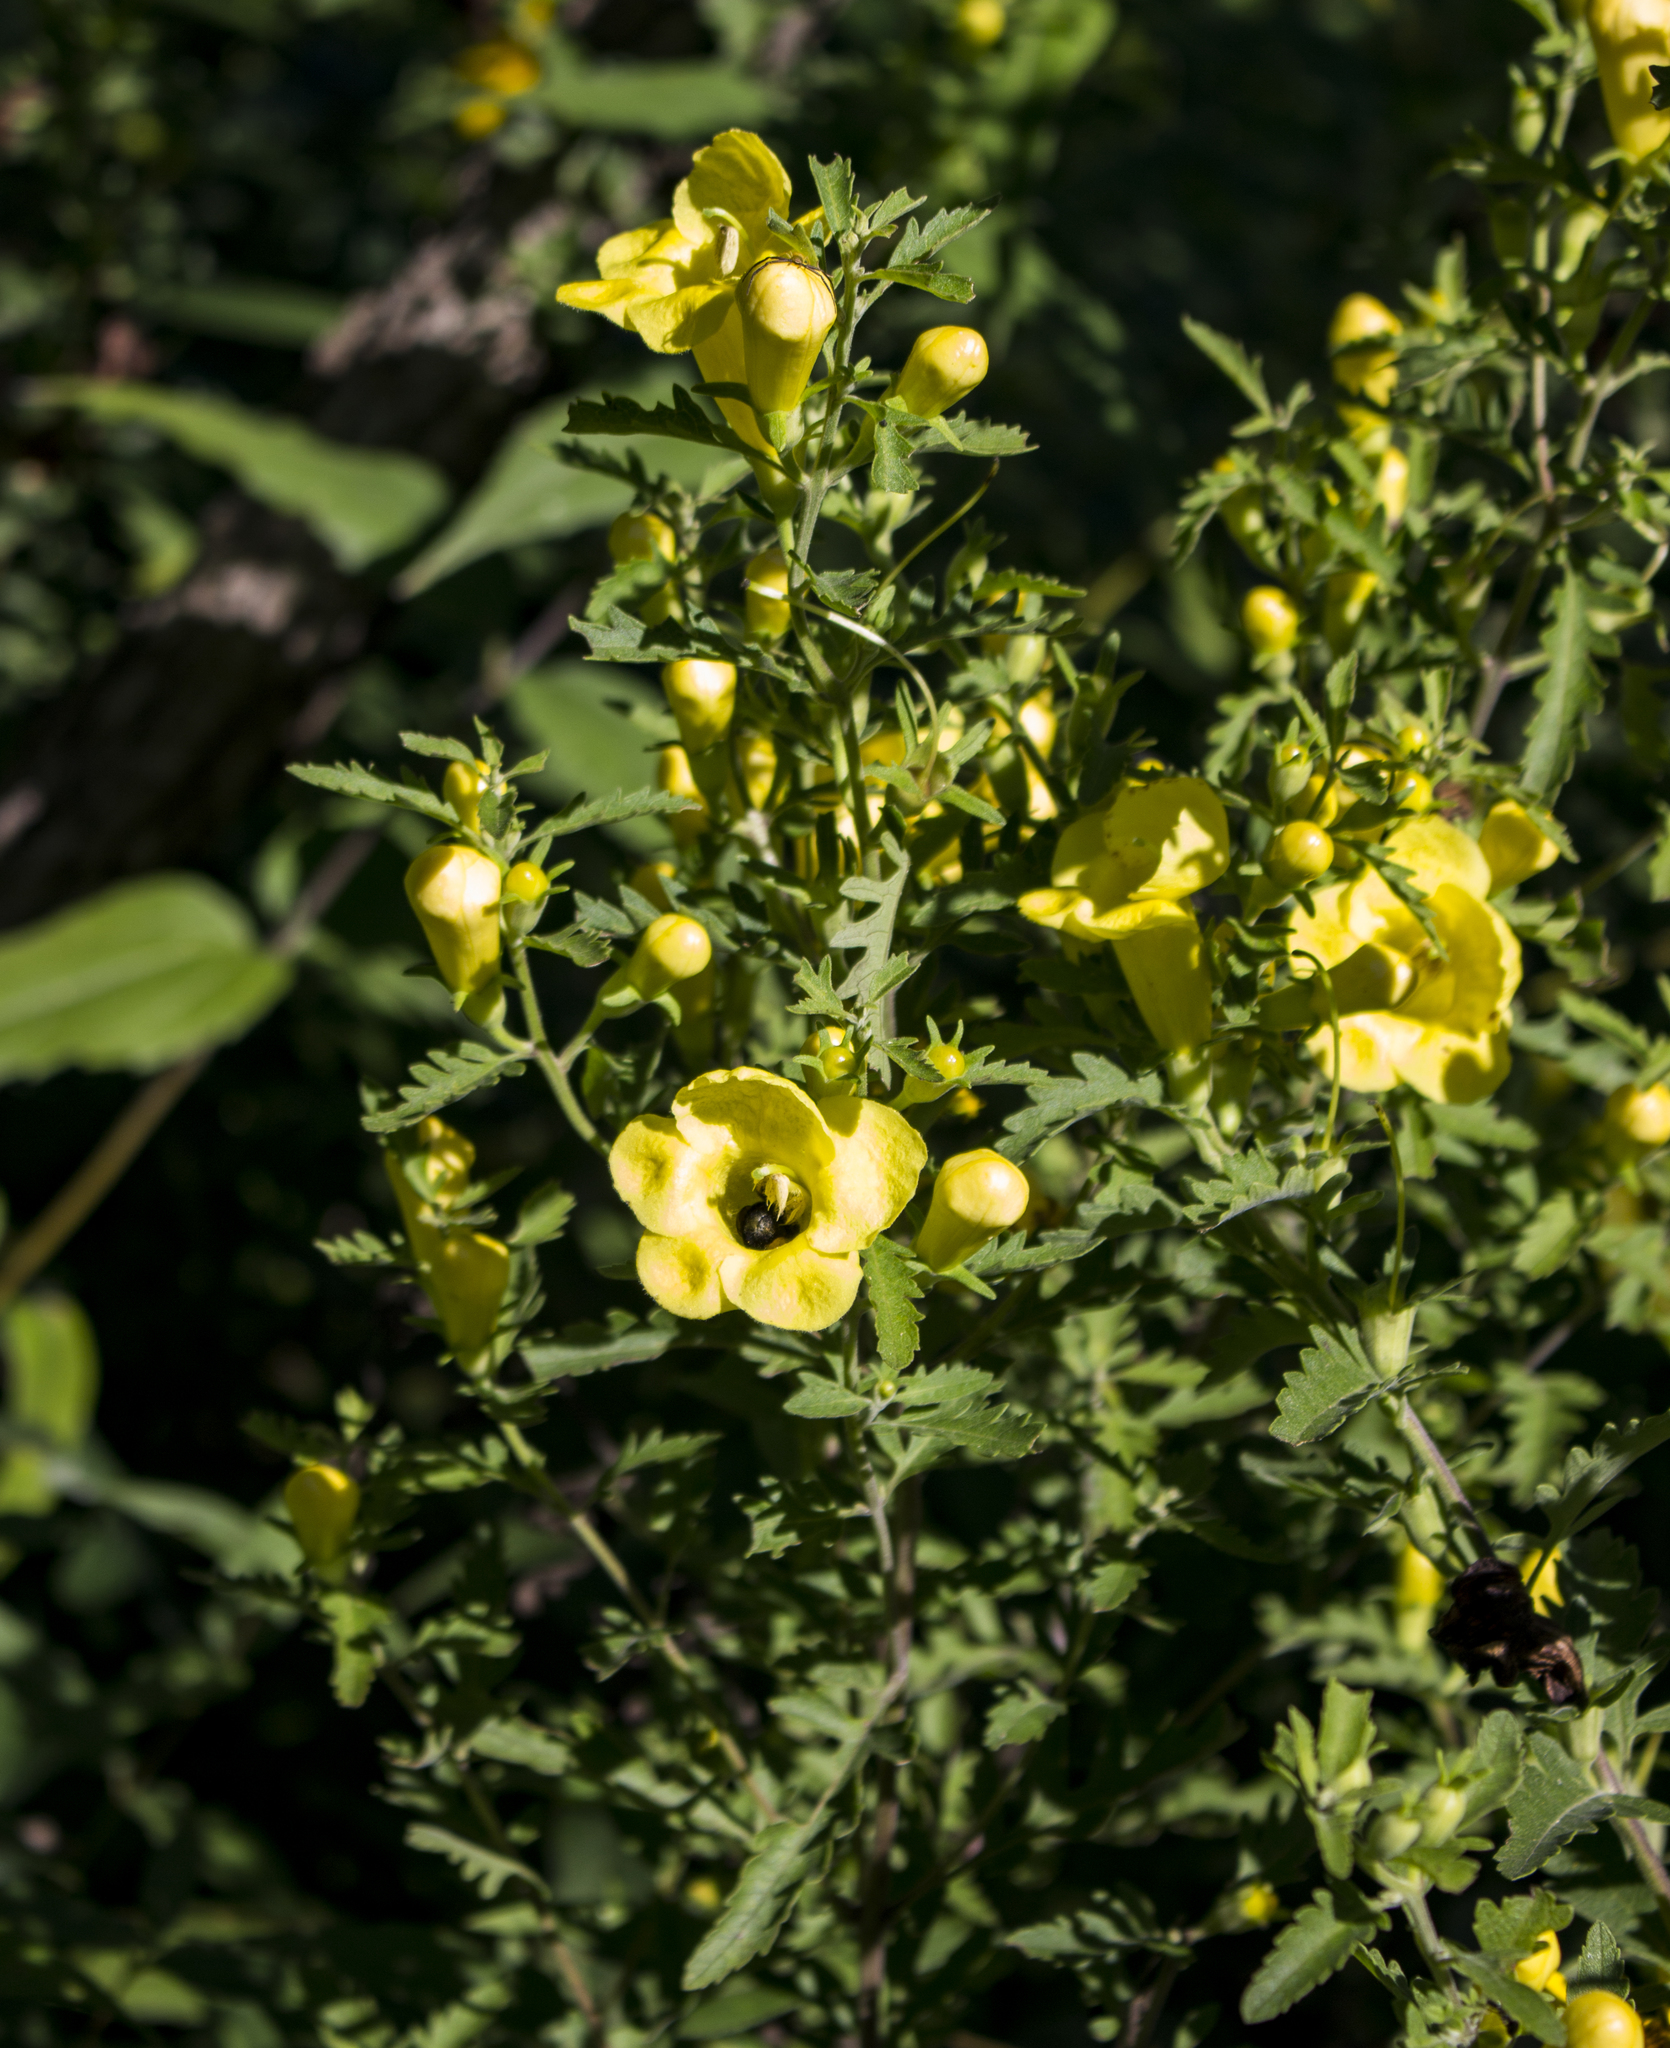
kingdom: Plantae
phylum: Tracheophyta
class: Magnoliopsida
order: Lamiales
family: Orobanchaceae
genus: Aureolaria
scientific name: Aureolaria grandiflora
